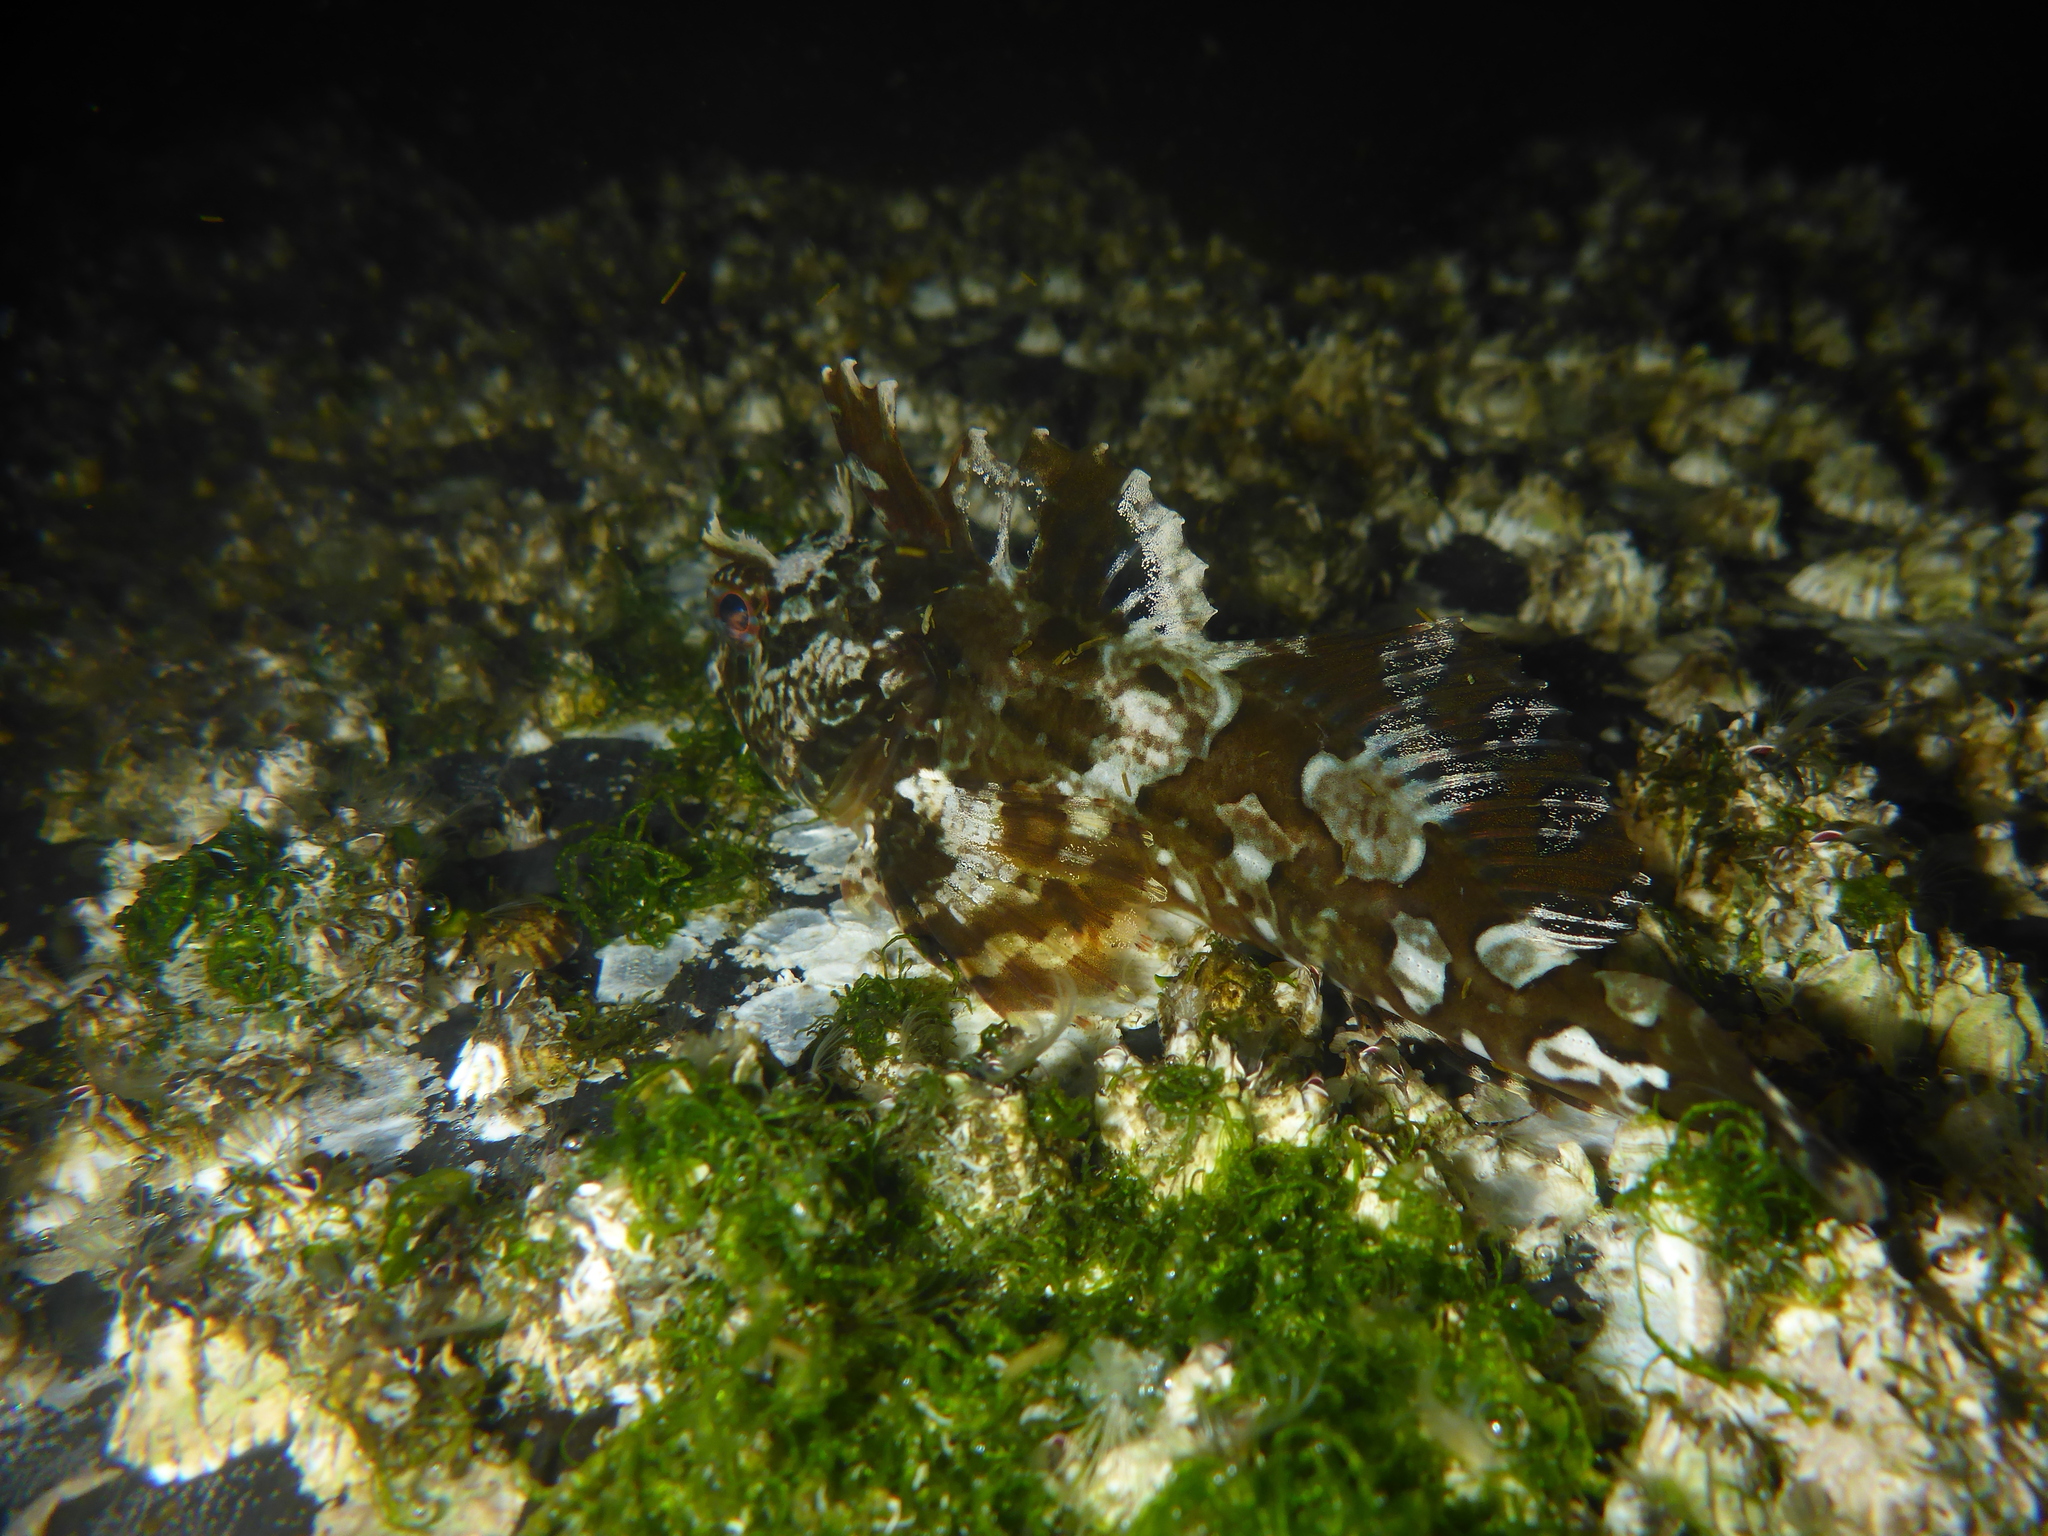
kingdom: Animalia
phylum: Chordata
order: Scorpaeniformes
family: Cottidae
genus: Scorpaenichthys
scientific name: Scorpaenichthys marmoratus
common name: Cabezon
